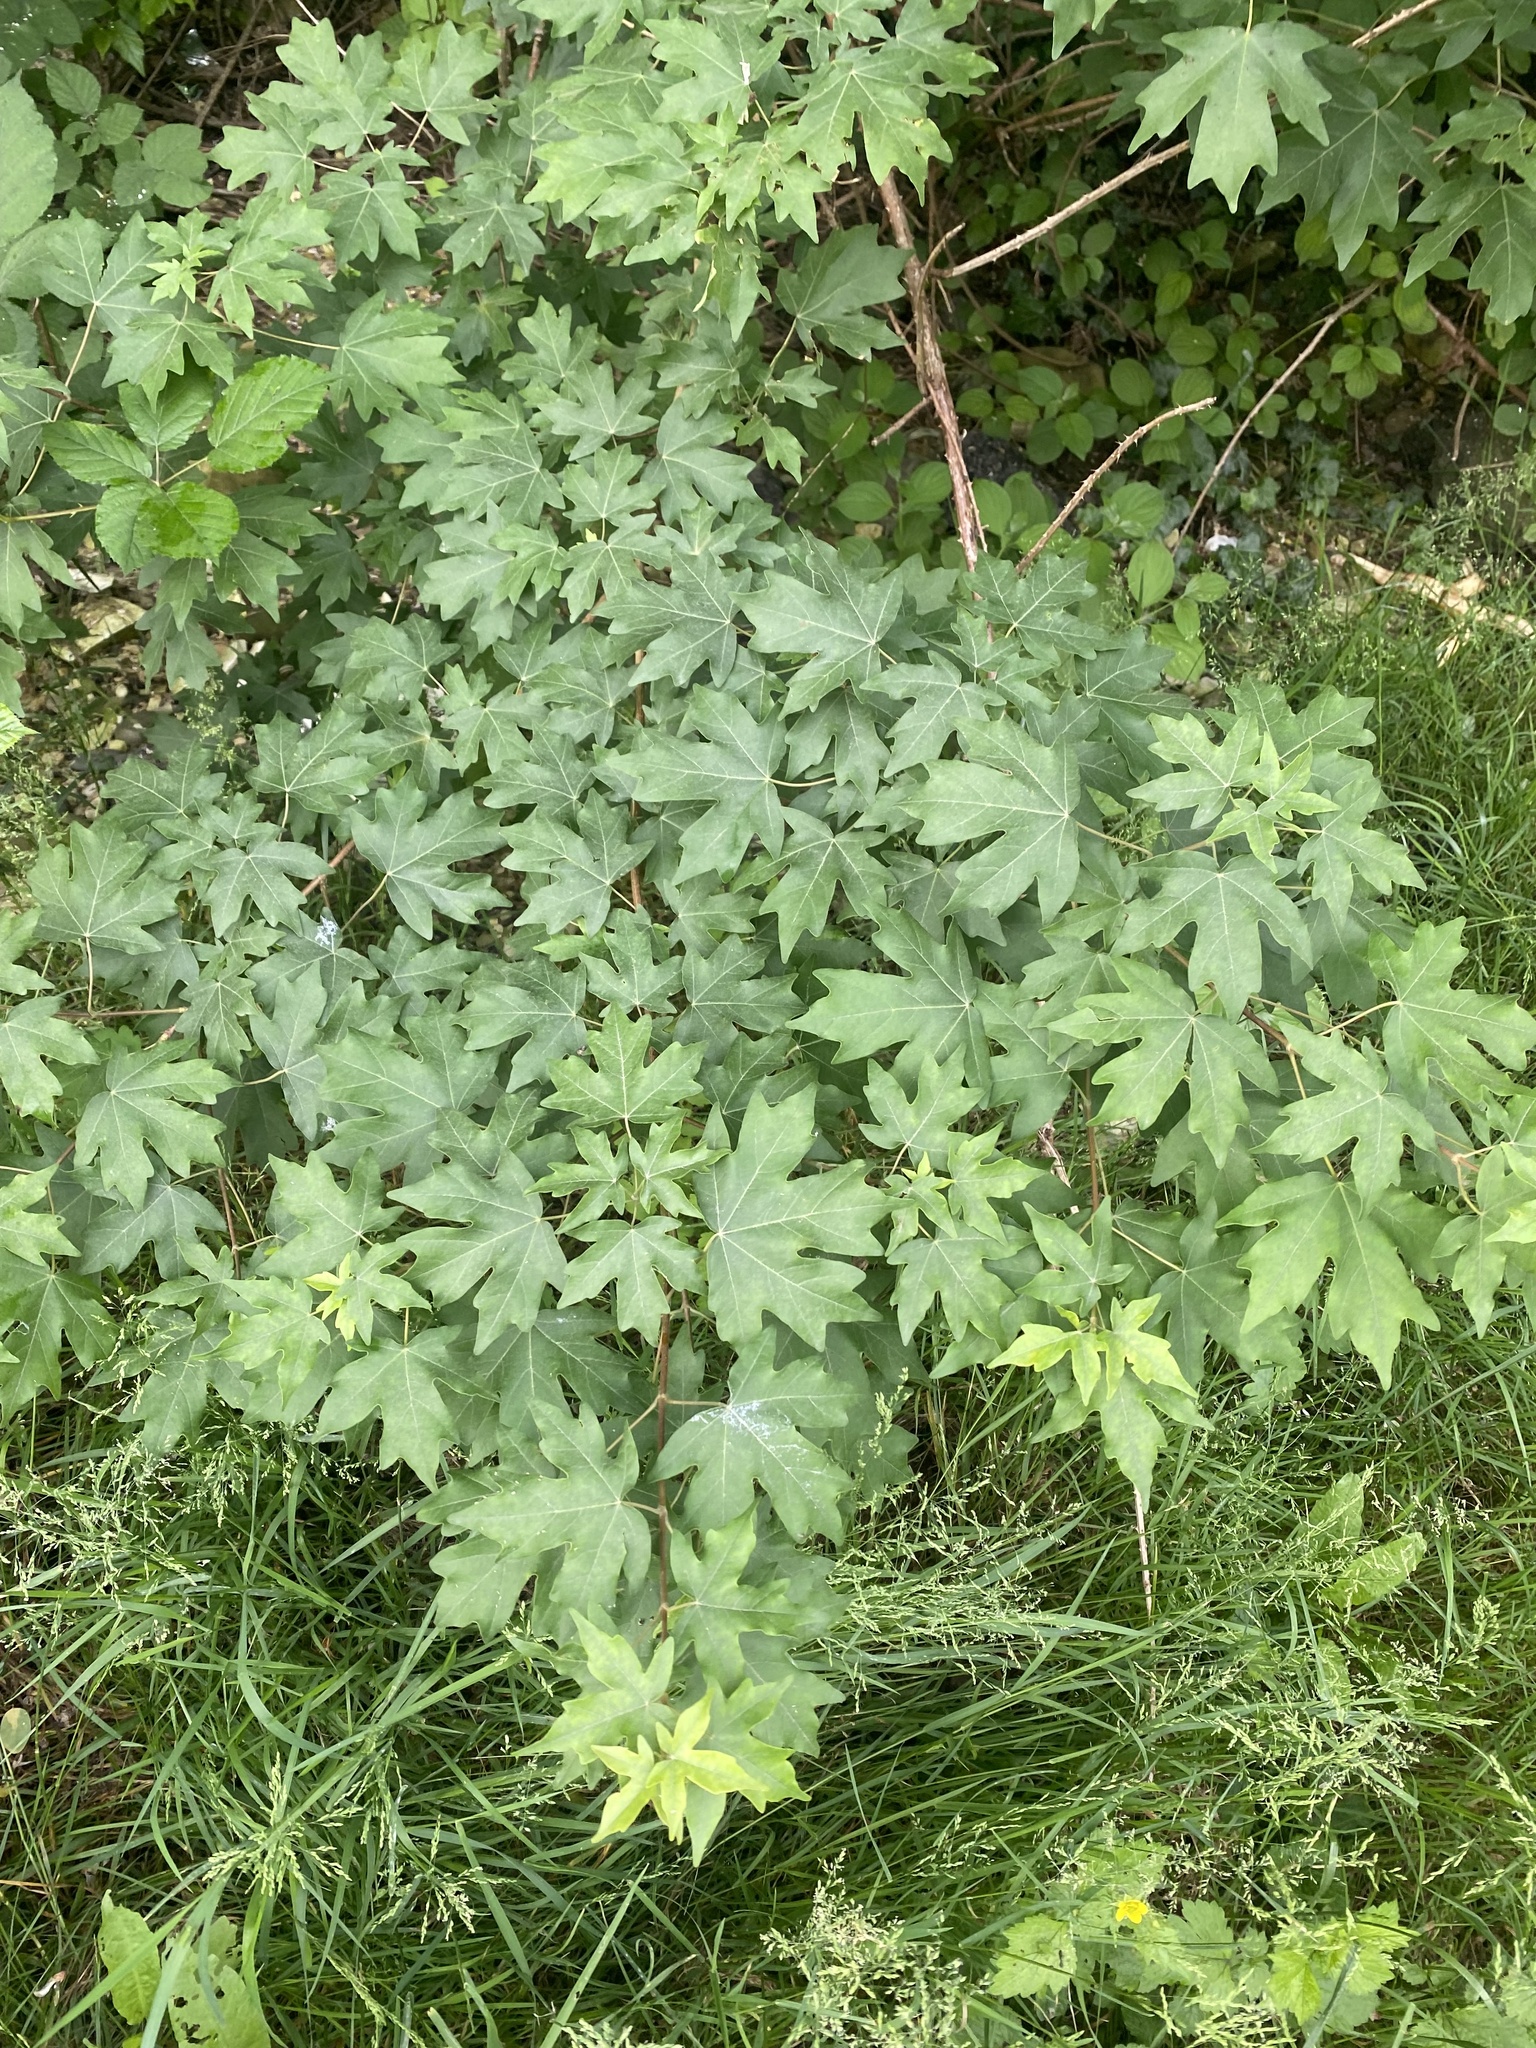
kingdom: Plantae
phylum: Tracheophyta
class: Magnoliopsida
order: Sapindales
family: Sapindaceae
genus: Acer
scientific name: Acer campestre
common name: Field maple
